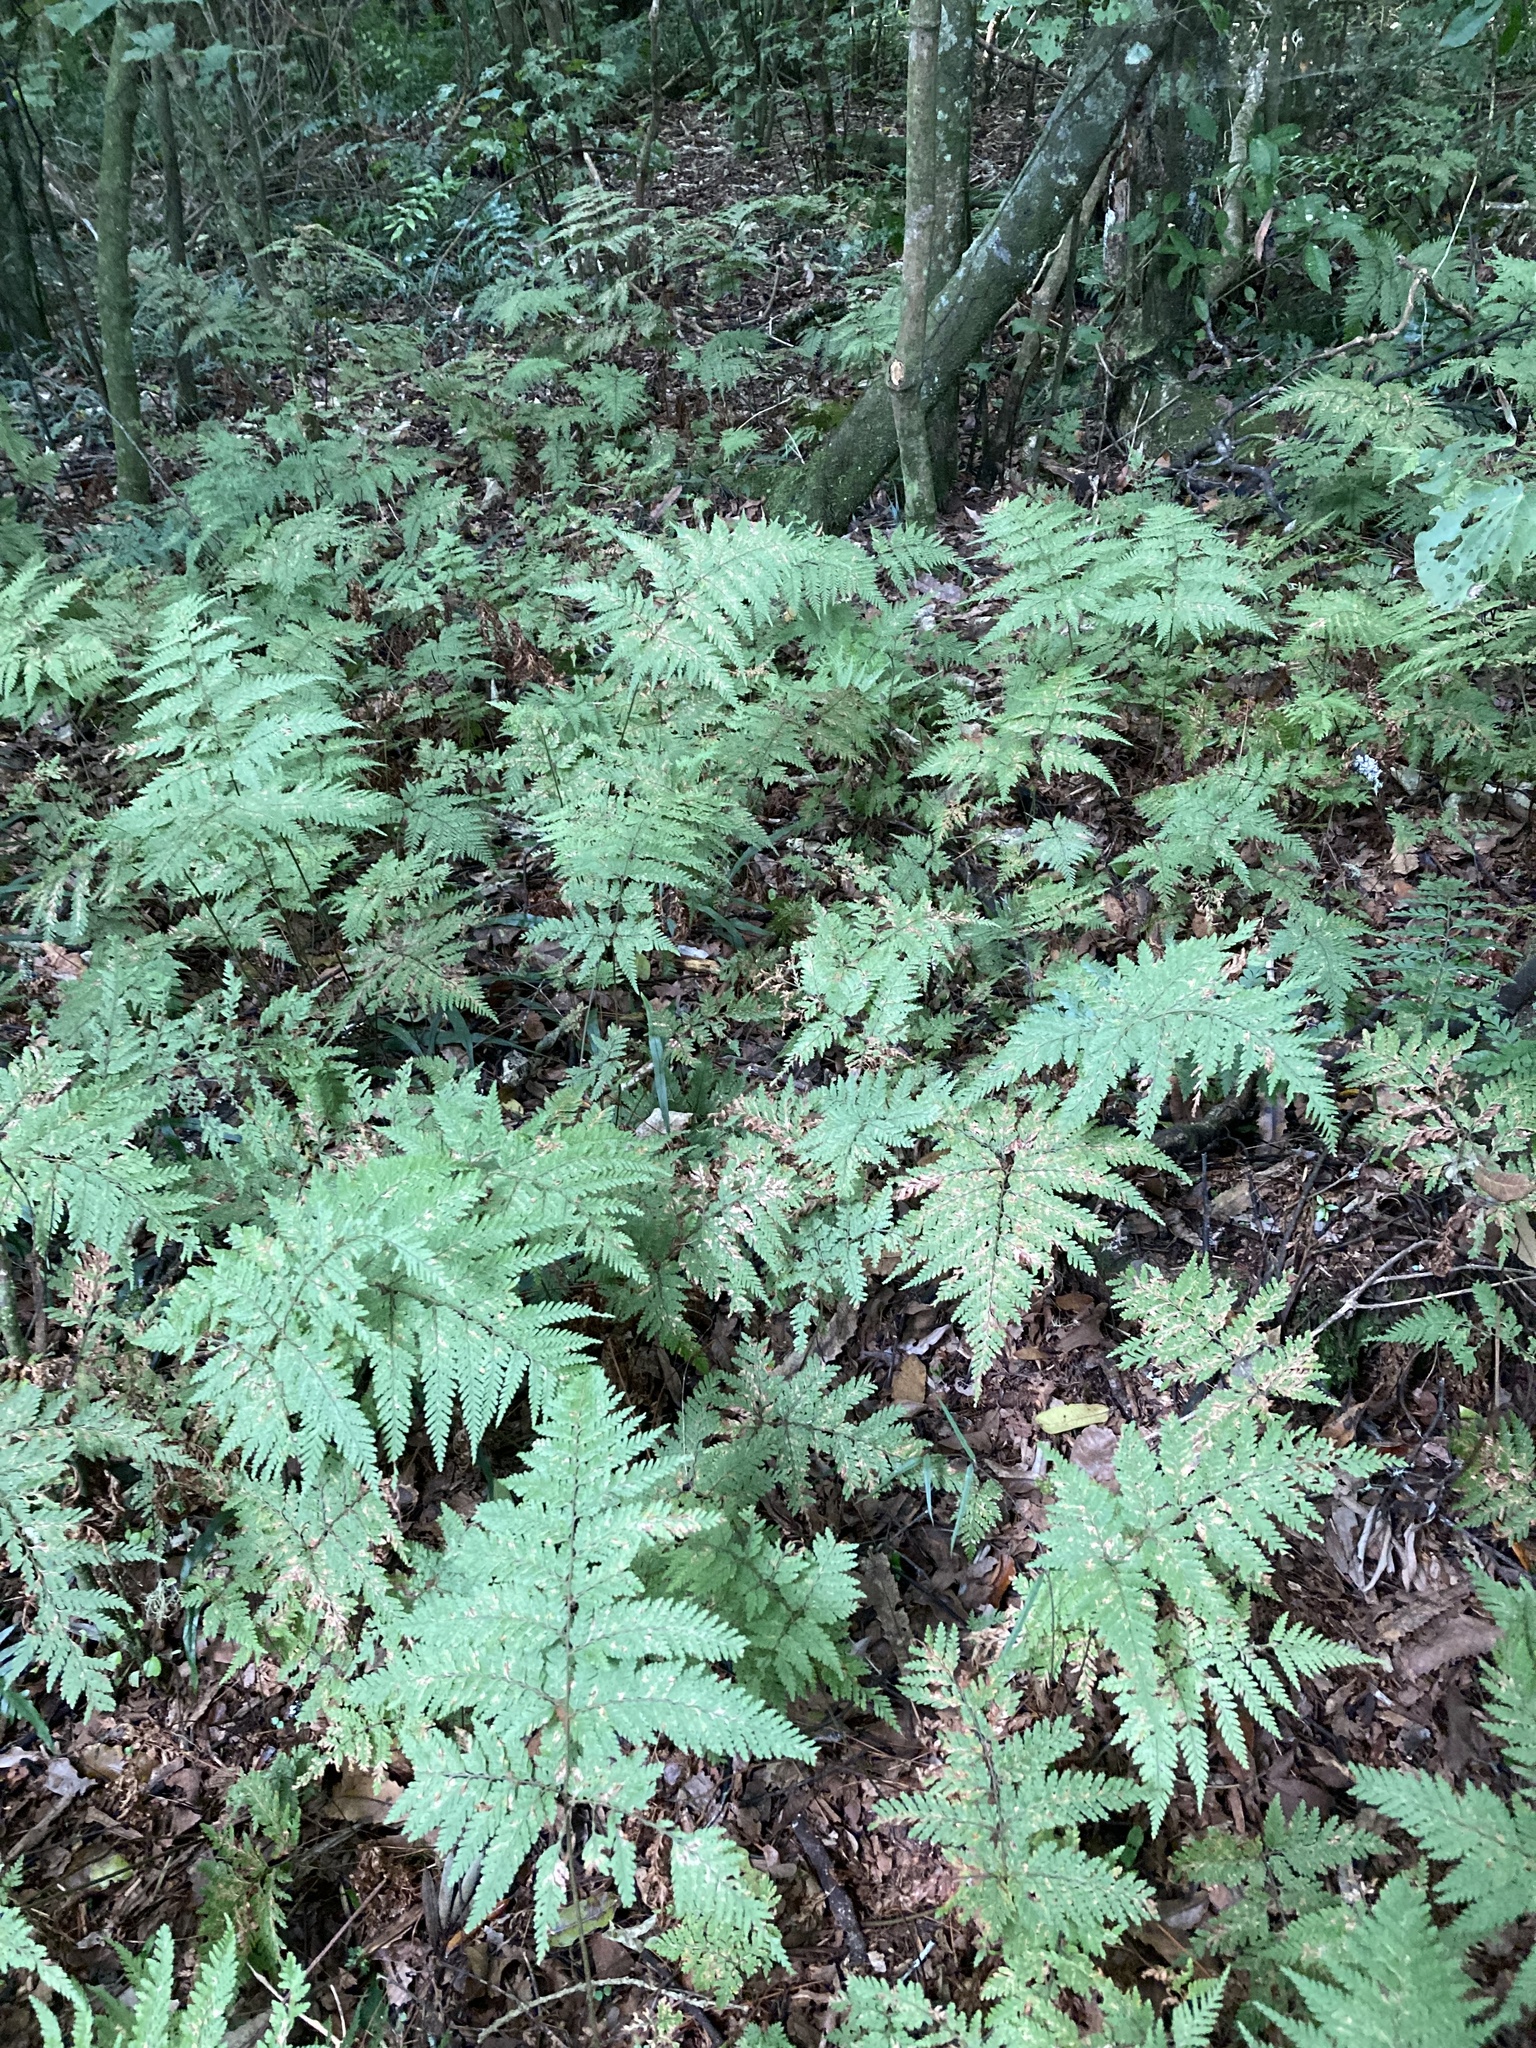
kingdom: Plantae
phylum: Tracheophyta
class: Polypodiopsida
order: Polypodiales
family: Dryopteridaceae
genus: Parapolystichum
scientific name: Parapolystichum microsorum
